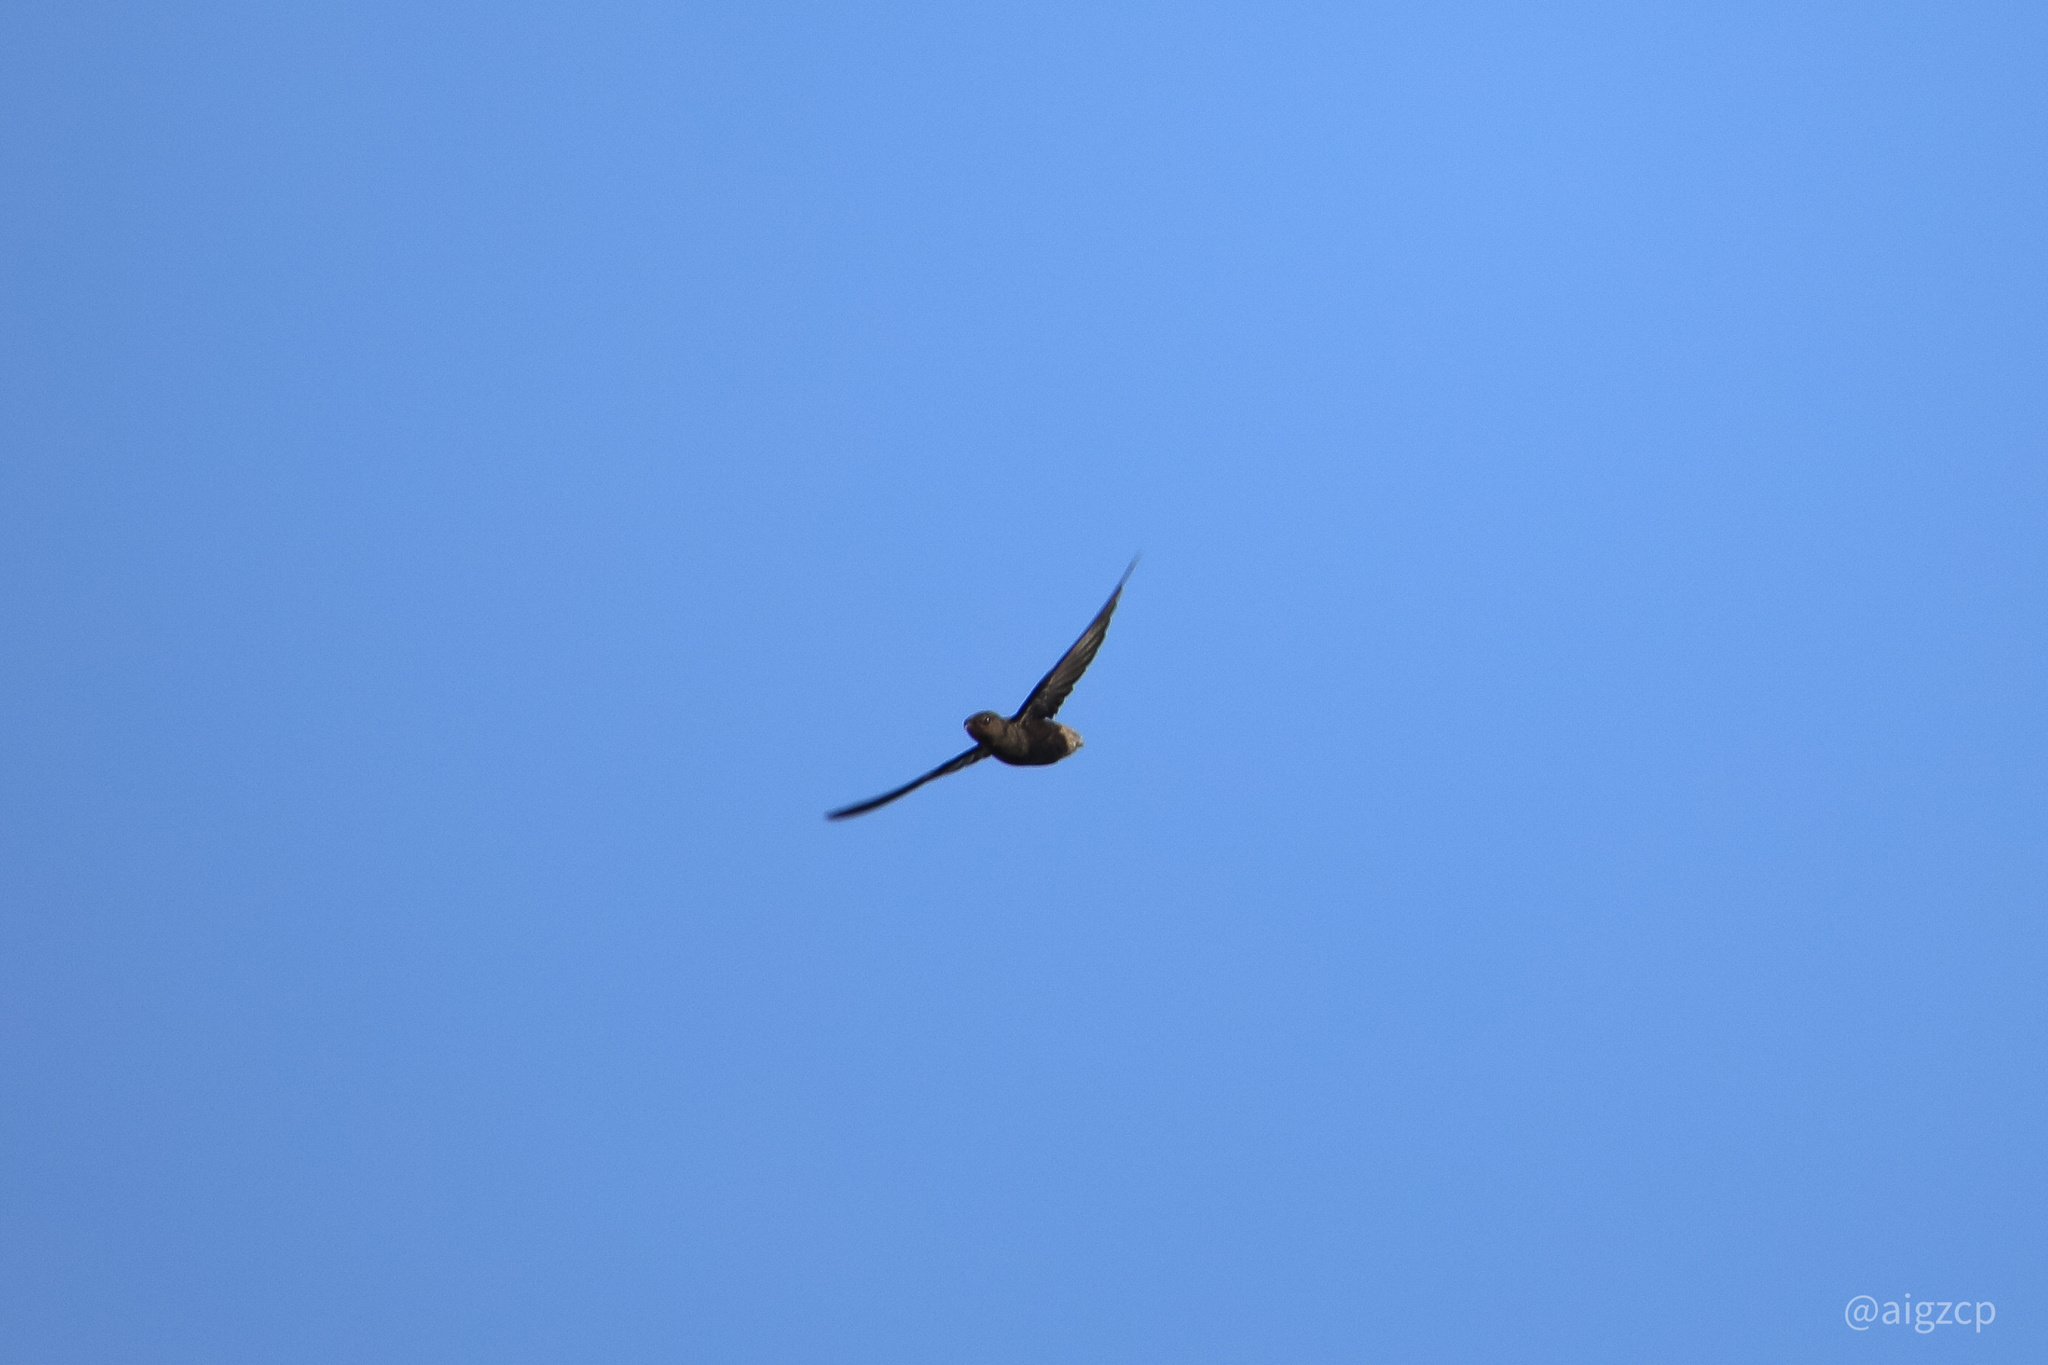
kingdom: Animalia
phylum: Chordata
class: Aves
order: Apodiformes
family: Apodidae
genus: Chaetura
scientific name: Chaetura brachyura
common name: Short-tailed swift
